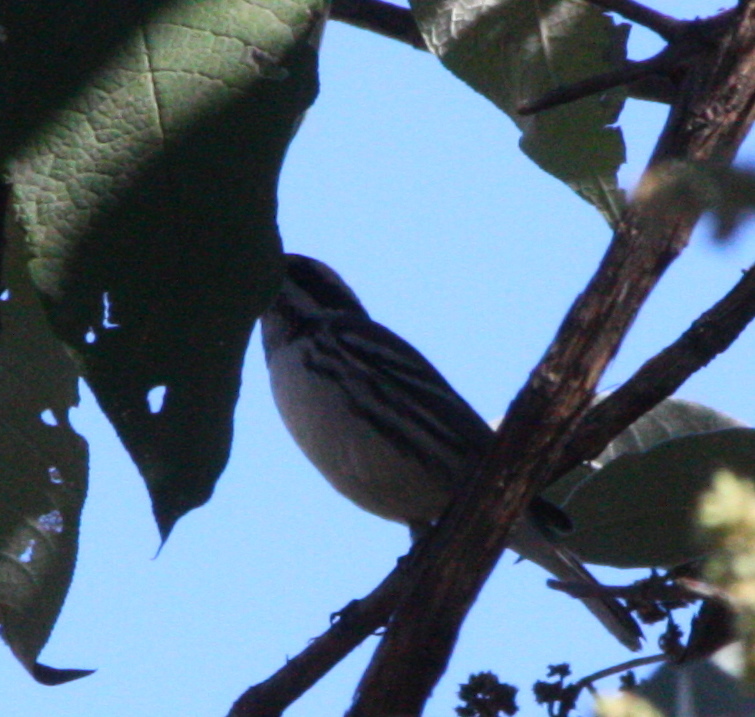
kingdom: Animalia
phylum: Chordata
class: Aves
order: Passeriformes
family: Parulidae
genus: Setophaga
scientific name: Setophaga nigrescens
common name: Black-throated gray warbler
